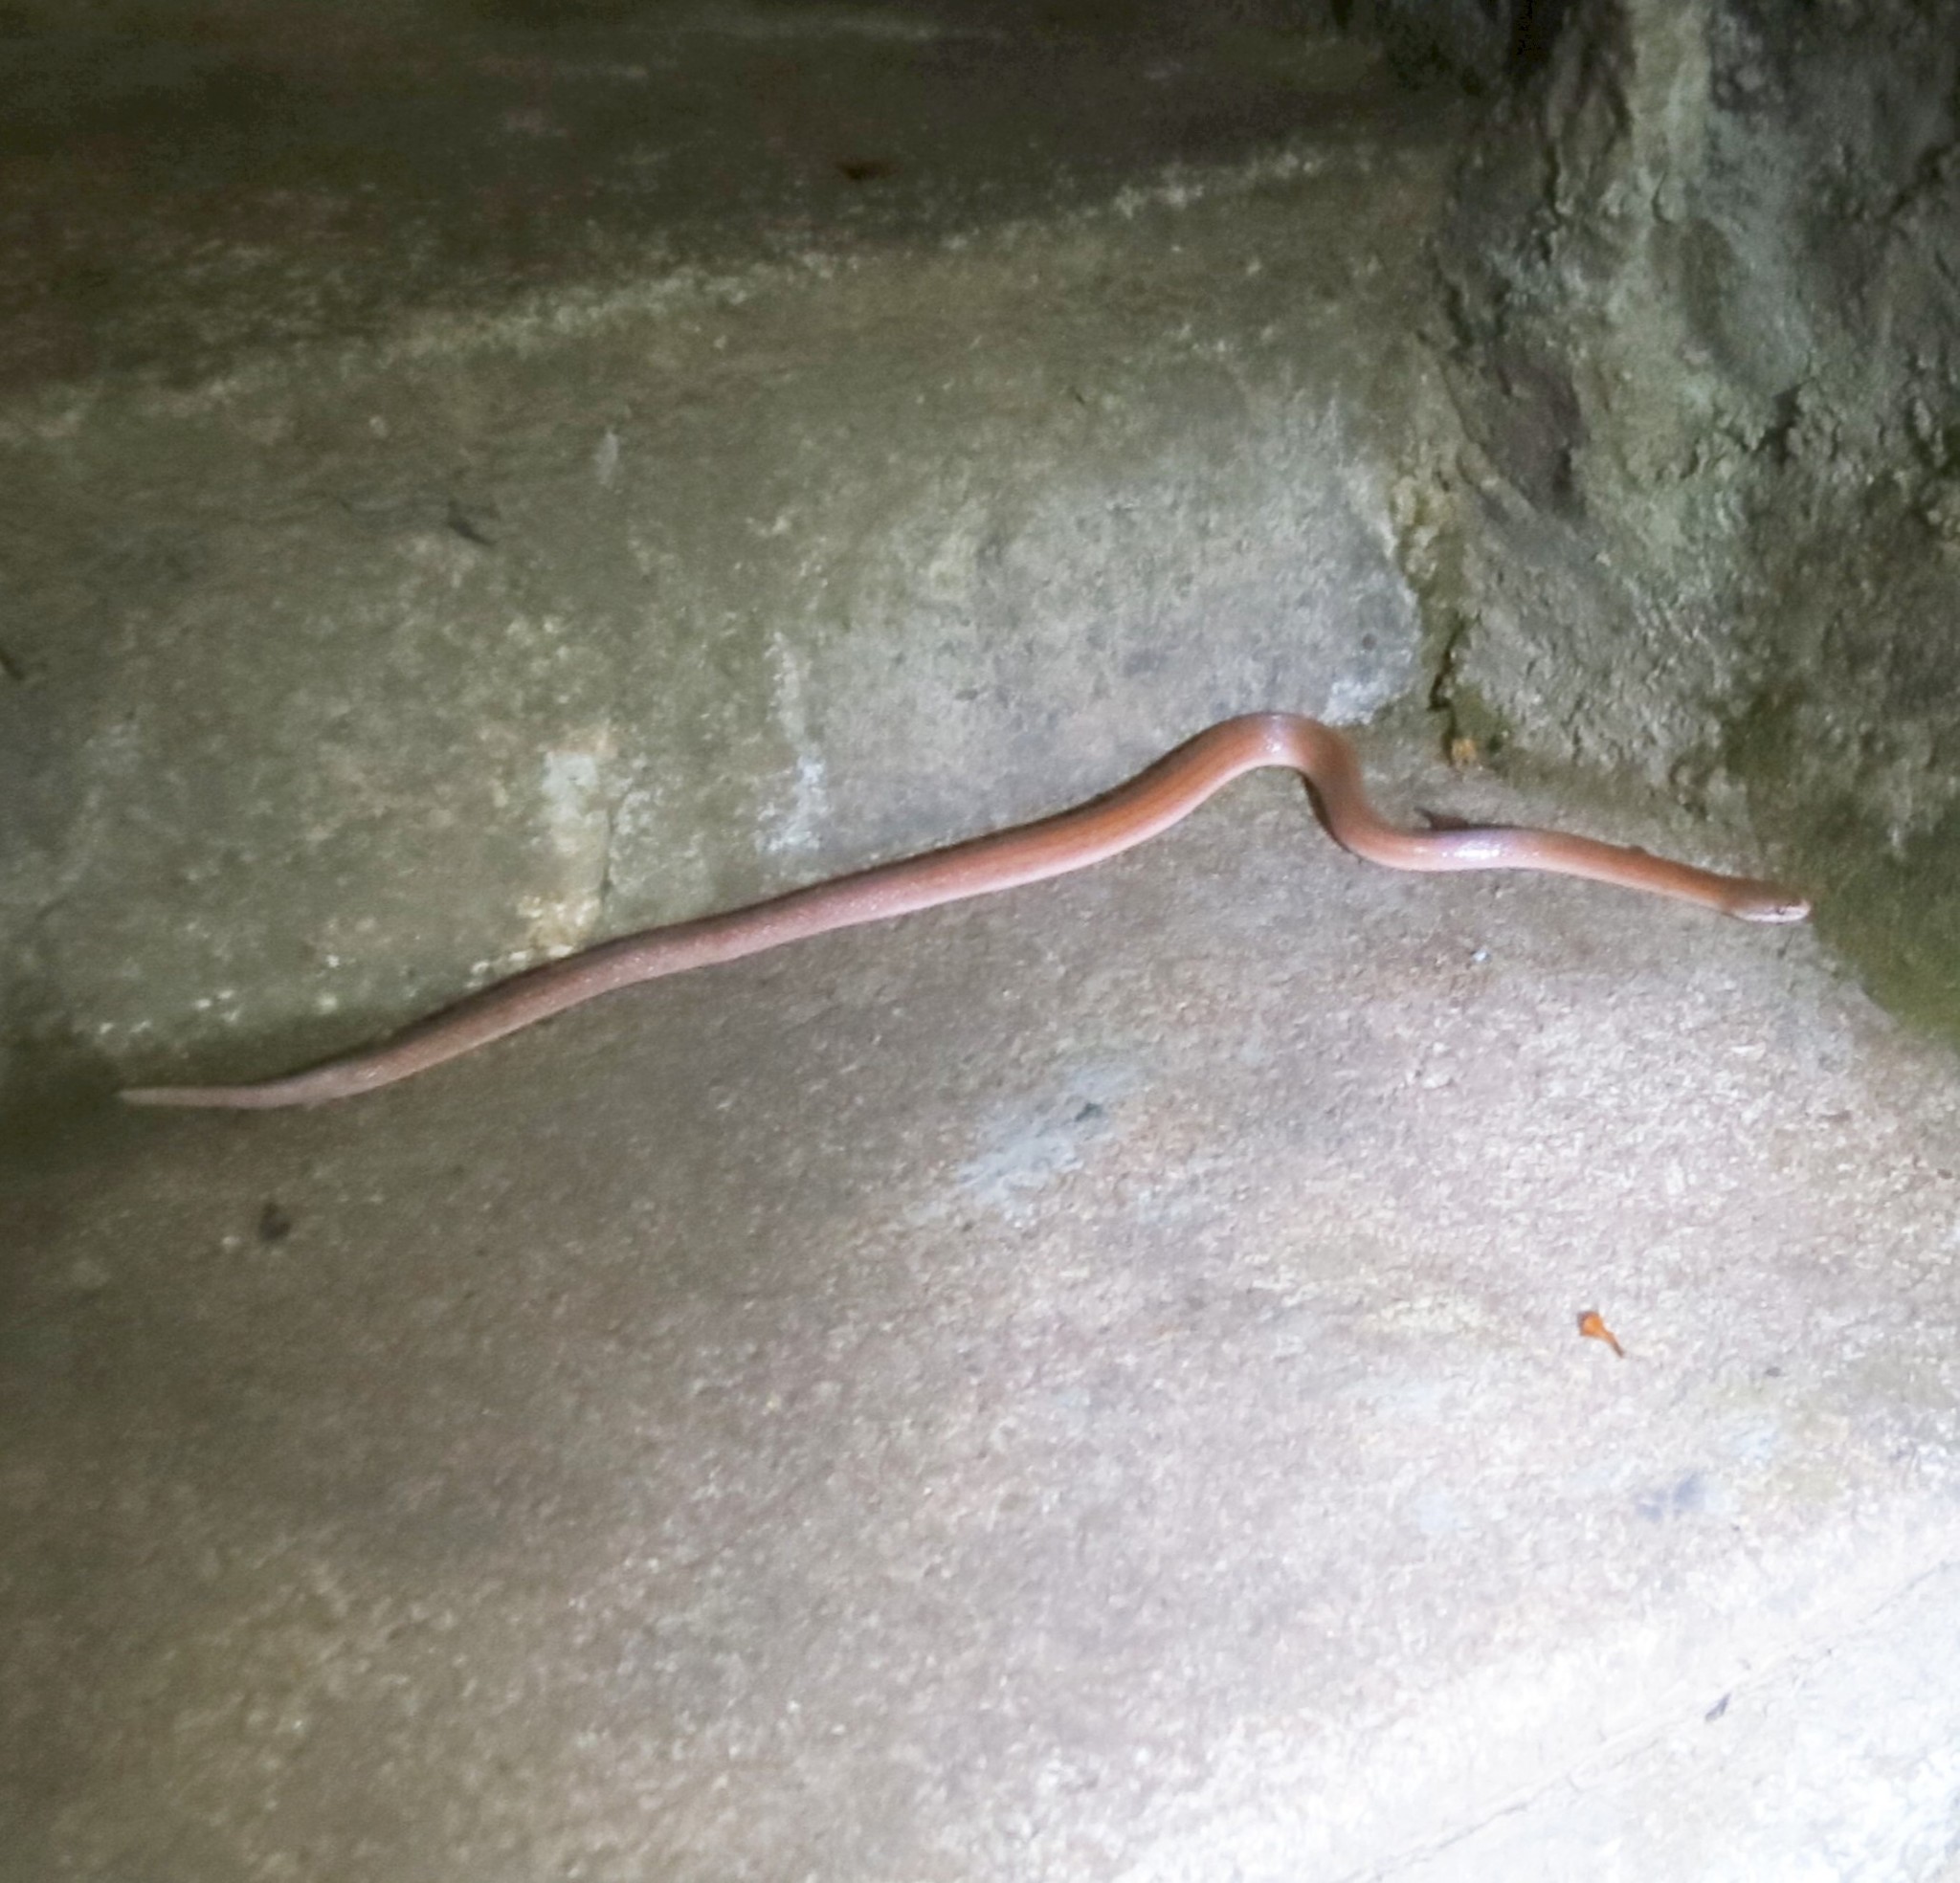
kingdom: Animalia
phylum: Chordata
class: Squamata
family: Pseudoxyrhophiidae
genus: Pseudoxyrhopus
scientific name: Pseudoxyrhopus quinquelineatus
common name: Striped brook snake
